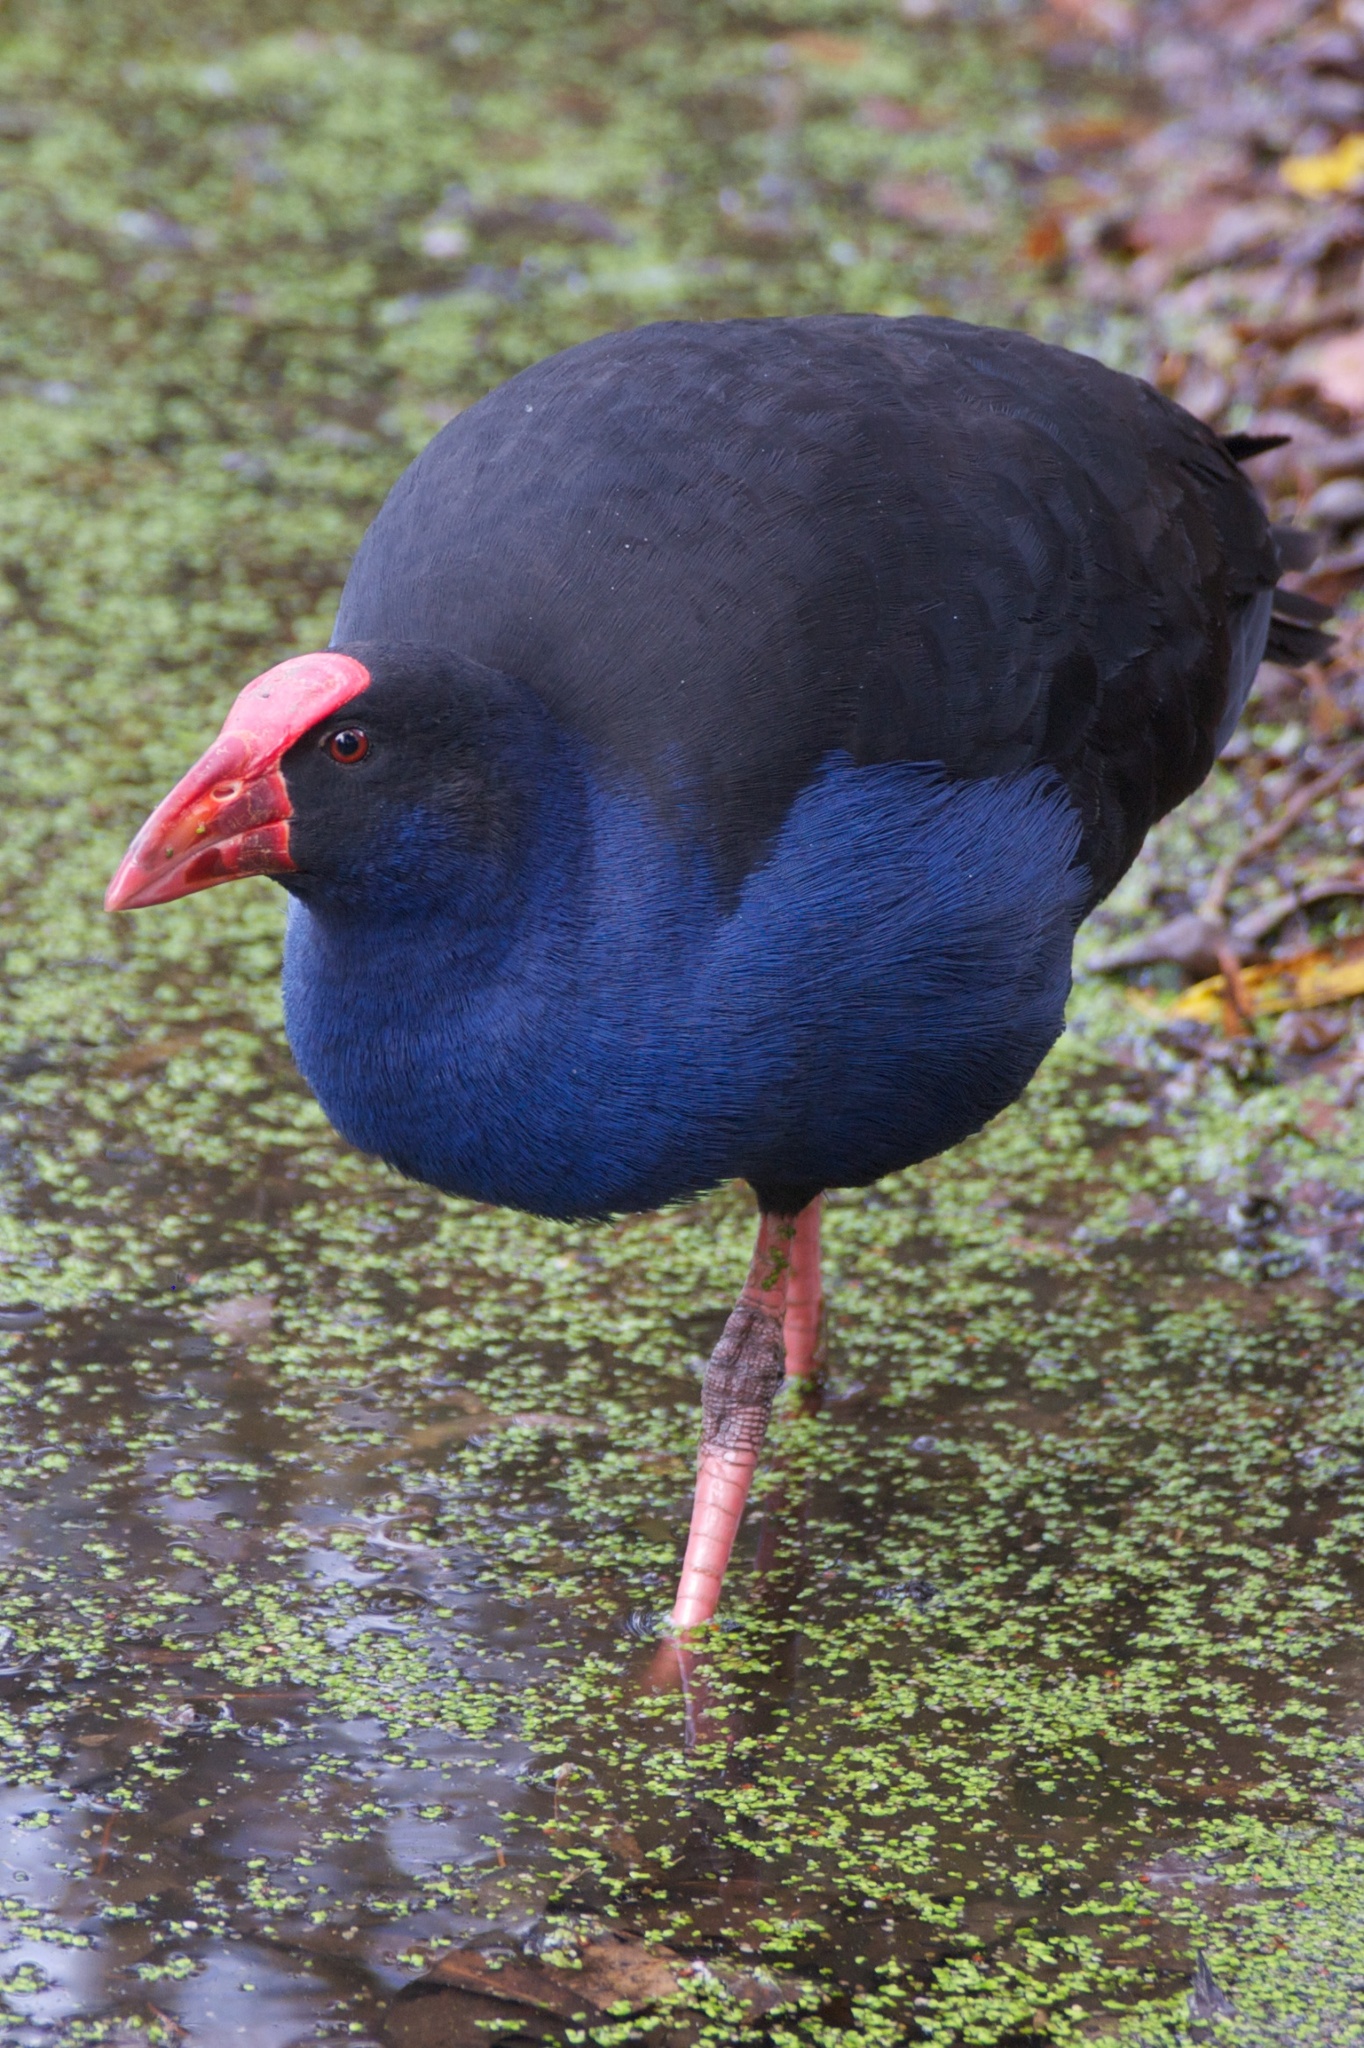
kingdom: Animalia
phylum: Chordata
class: Aves
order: Gruiformes
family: Rallidae
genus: Porphyrio
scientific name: Porphyrio melanotus
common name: Australasian swamphen
